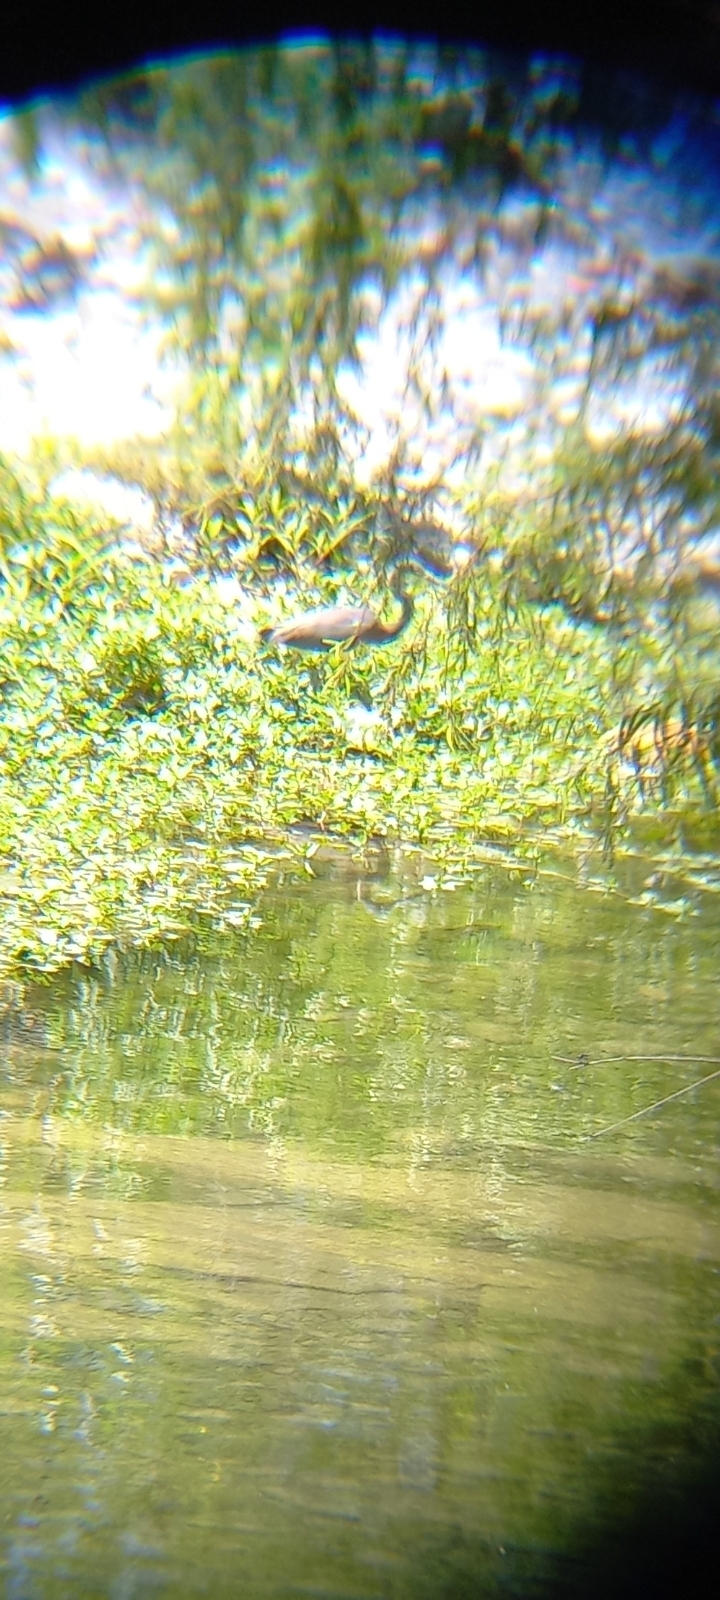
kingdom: Animalia
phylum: Chordata
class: Aves
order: Pelecaniformes
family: Ardeidae
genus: Egretta
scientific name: Egretta tricolor
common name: Tricolored heron
